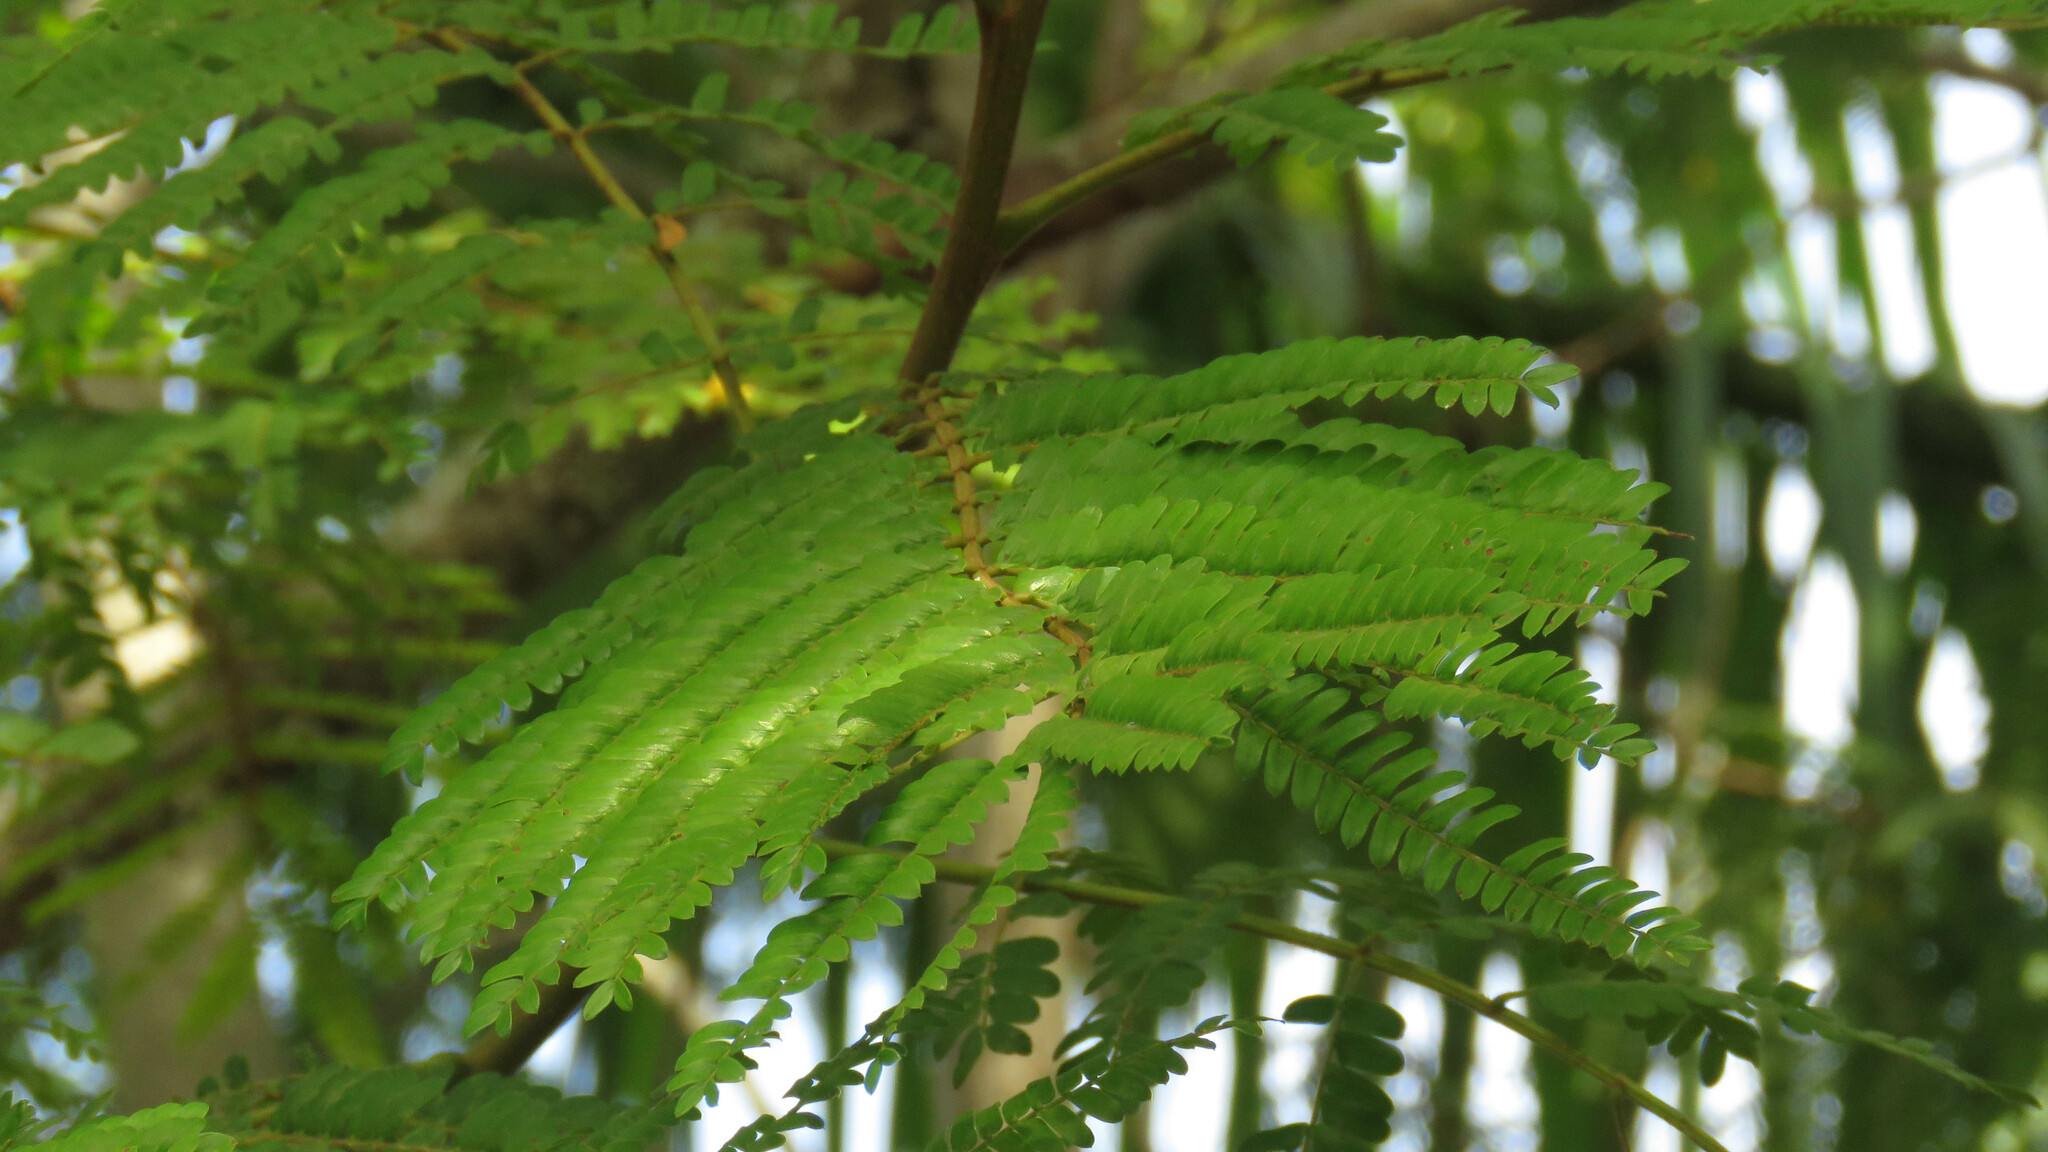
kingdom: Plantae
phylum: Tracheophyta
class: Magnoliopsida
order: Fabales
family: Fabaceae
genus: Peltophorum
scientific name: Peltophorum dubium
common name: Horsebush
